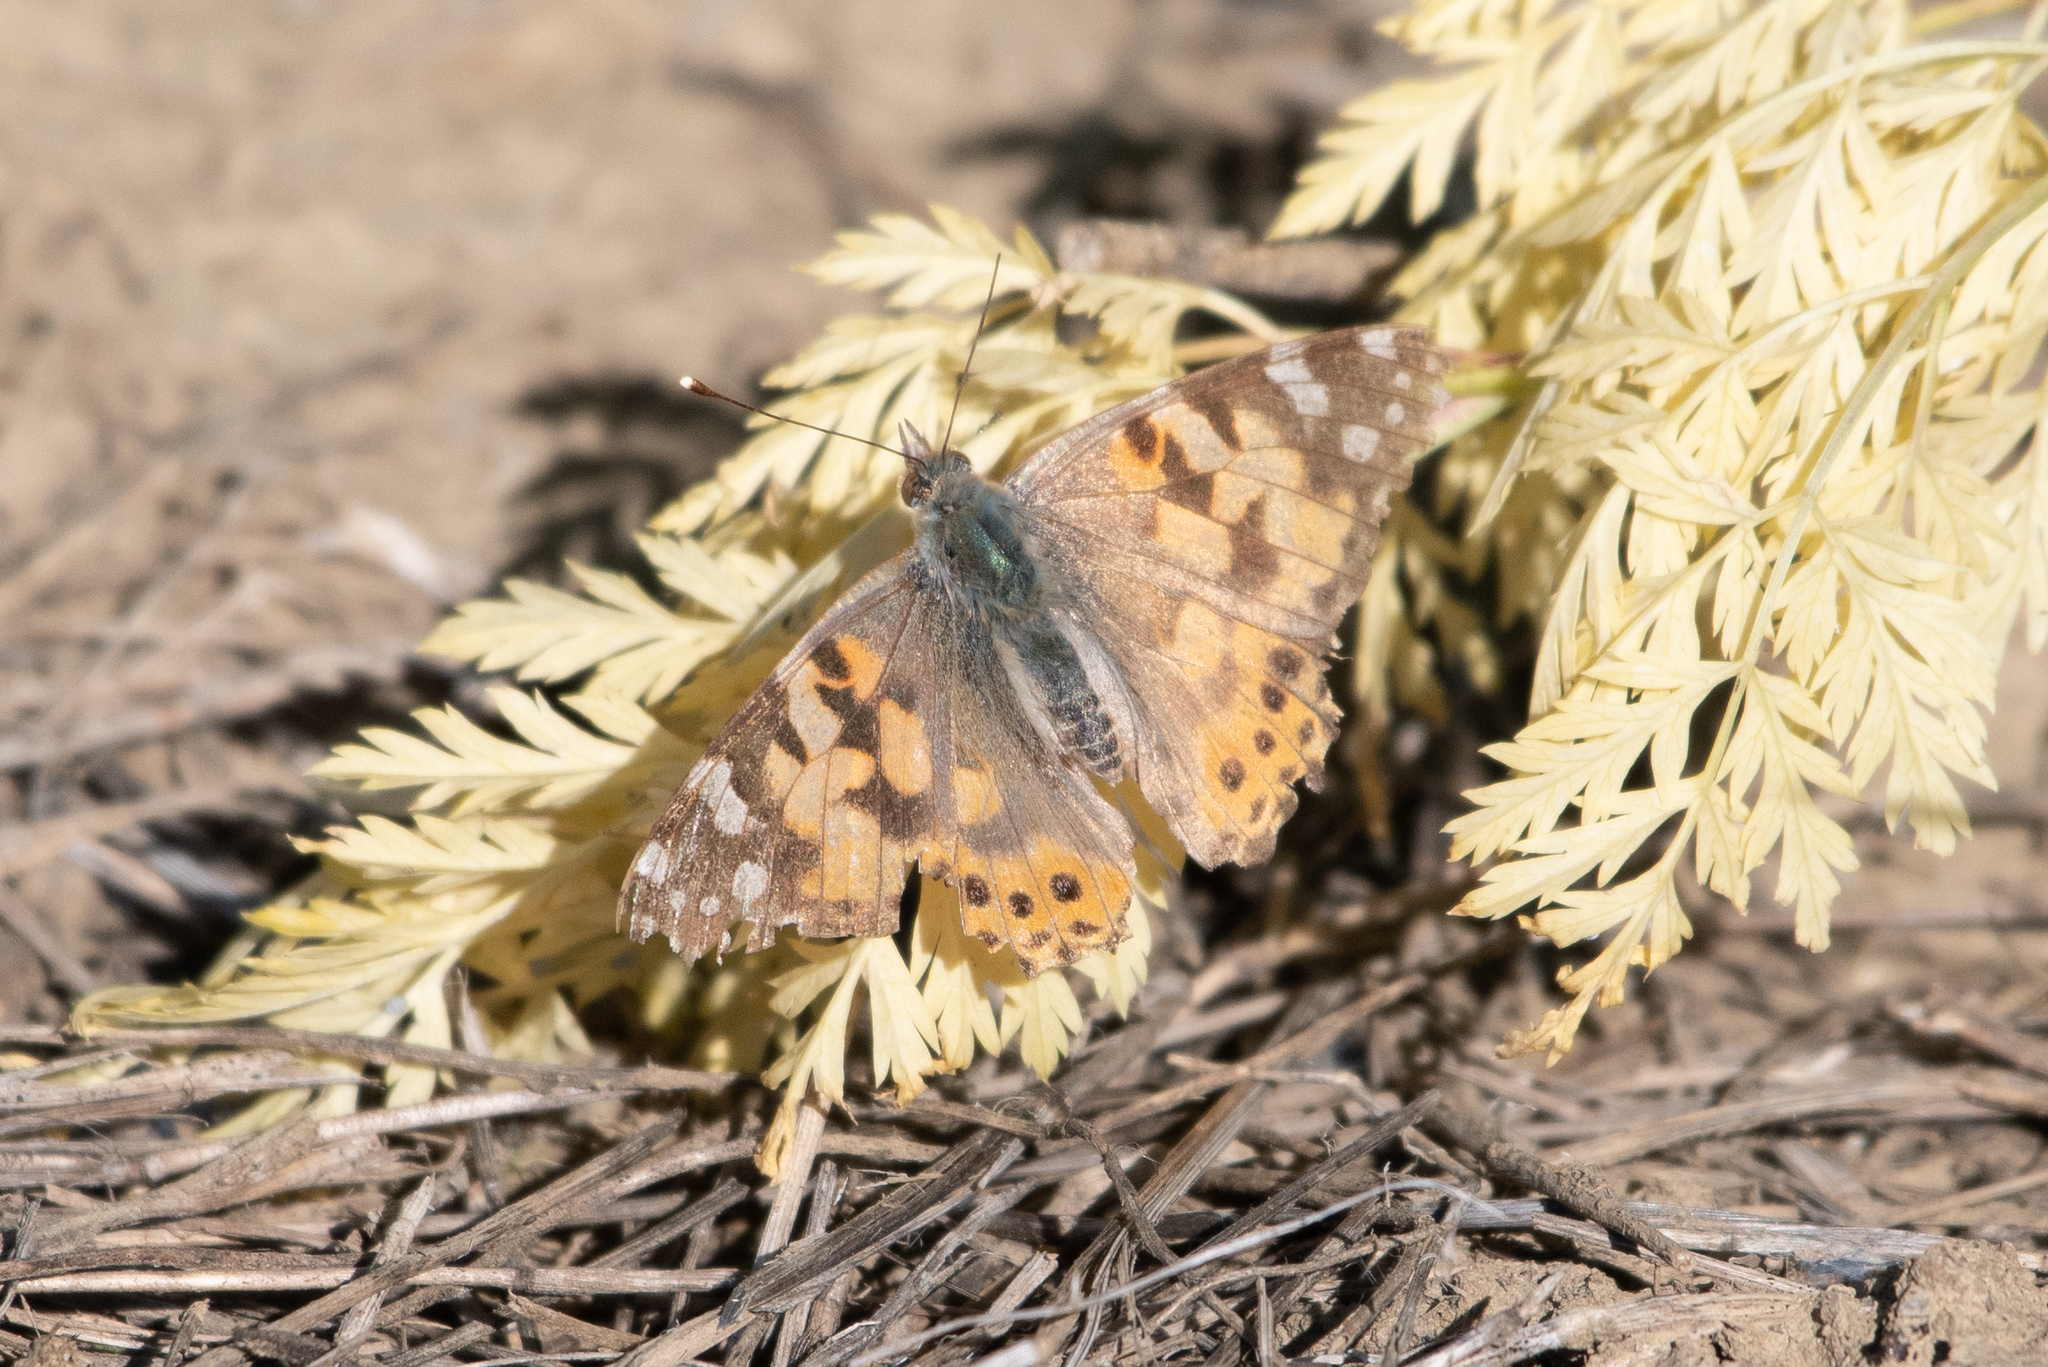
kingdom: Animalia
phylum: Arthropoda
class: Insecta
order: Lepidoptera
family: Nymphalidae
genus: Vanessa
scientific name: Vanessa cardui
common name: Painted lady
